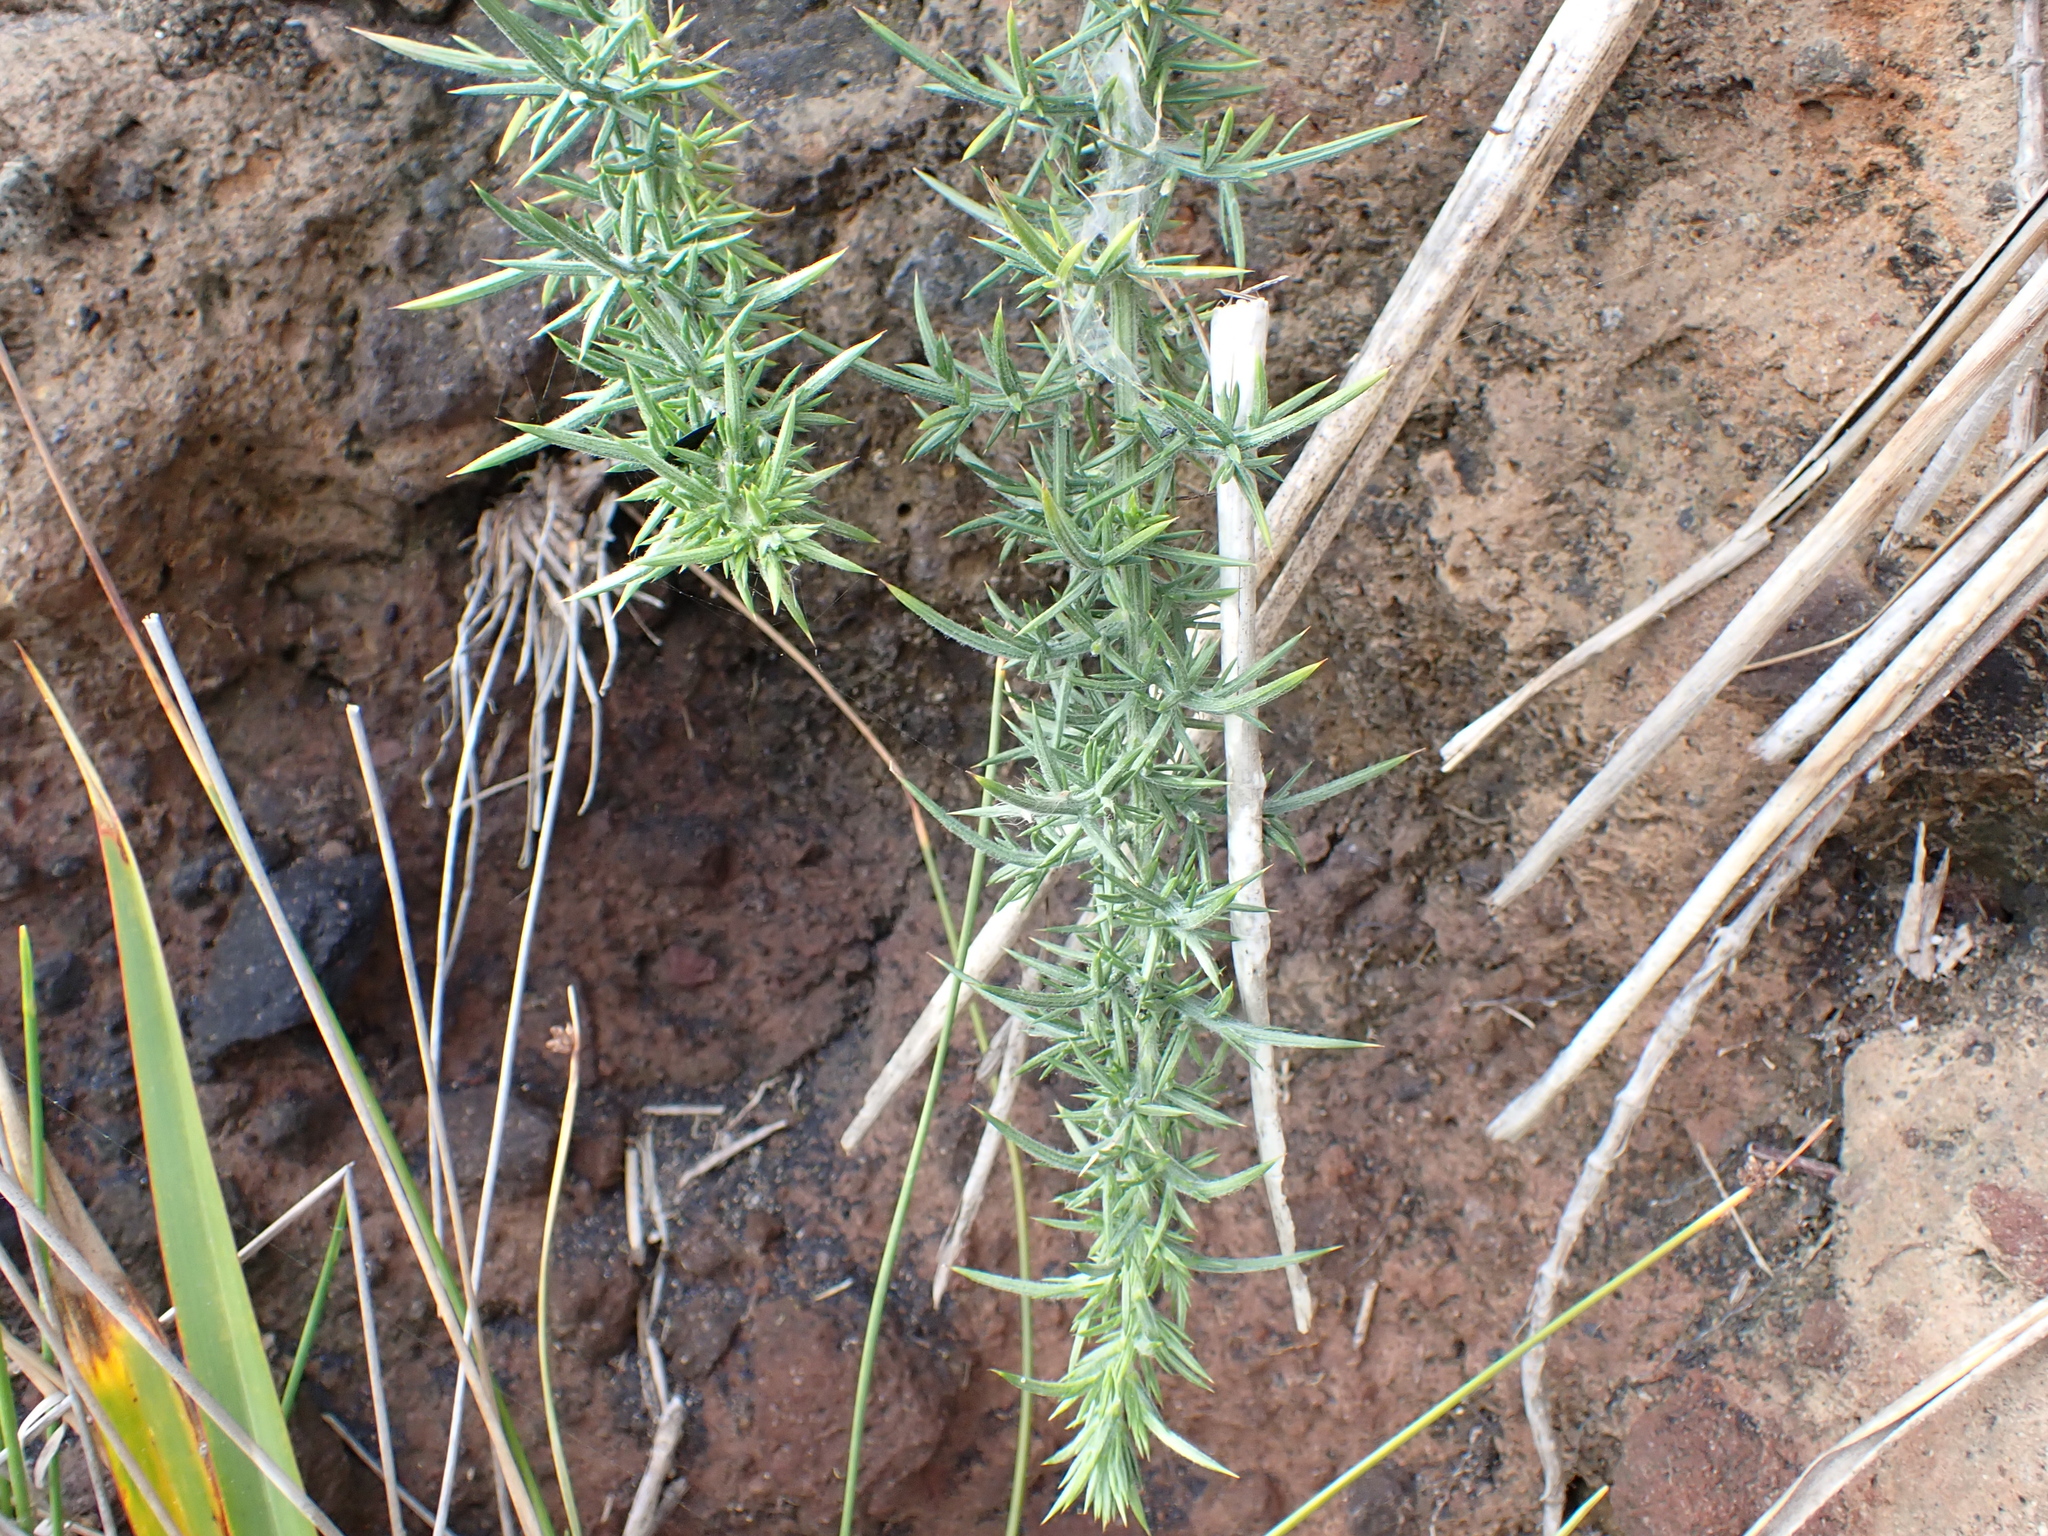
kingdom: Plantae
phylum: Tracheophyta
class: Magnoliopsida
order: Fabales
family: Fabaceae
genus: Ulex
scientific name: Ulex europaeus
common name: Common gorse
